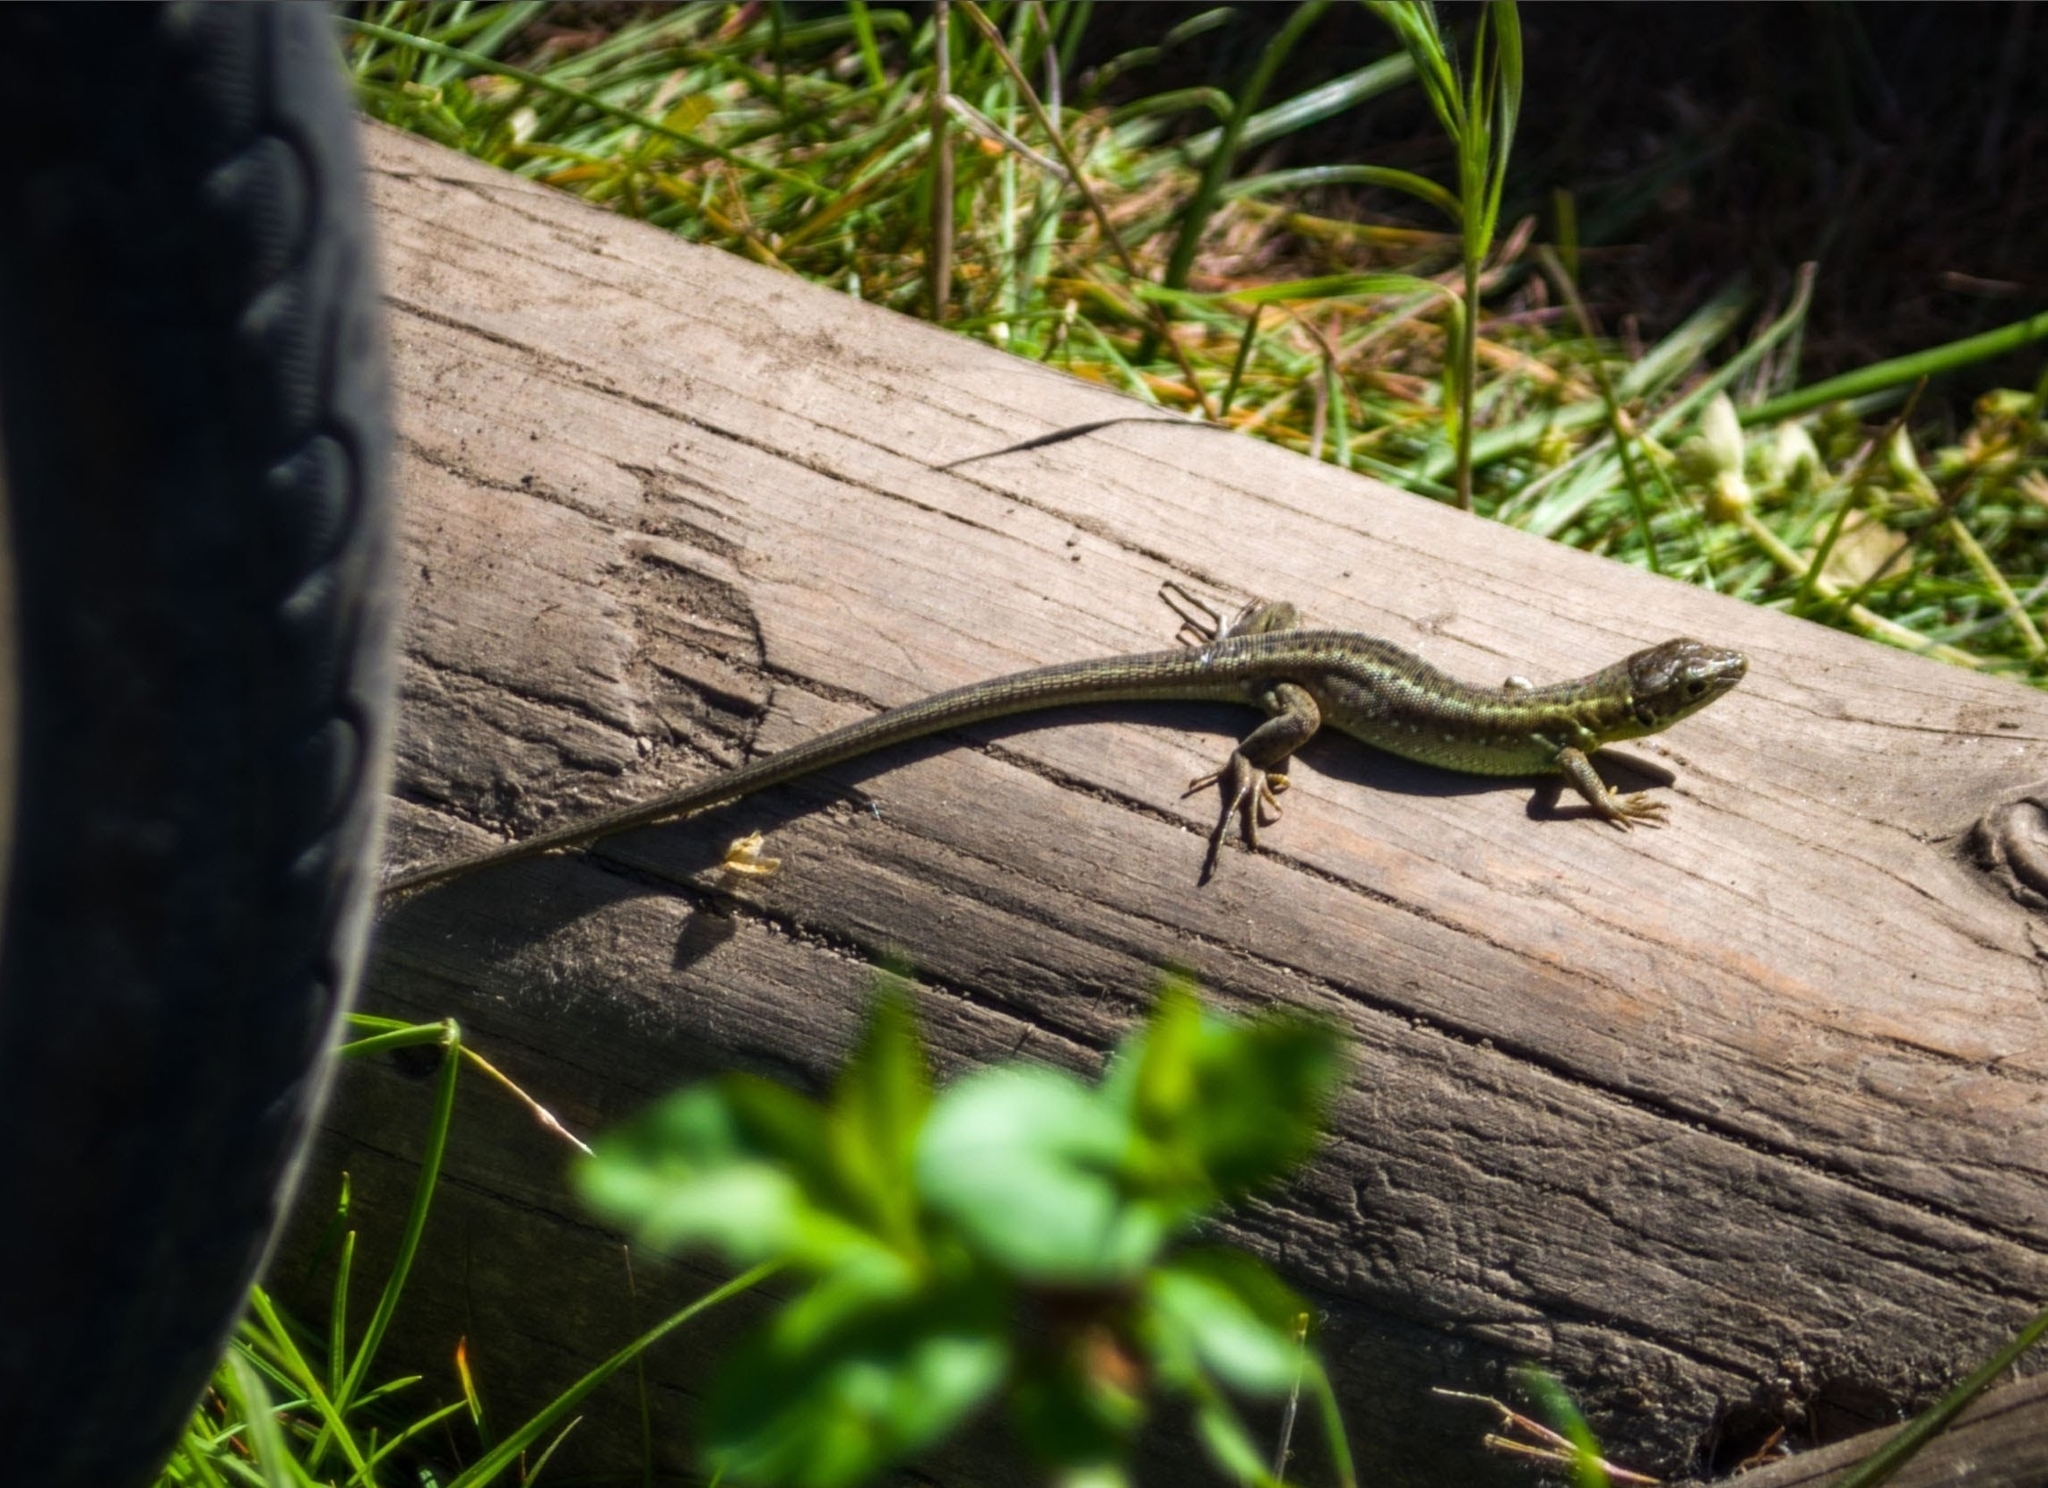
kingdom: Animalia
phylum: Chordata
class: Squamata
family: Lacertidae
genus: Lacerta
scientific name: Lacerta viridis
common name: European green lizard
